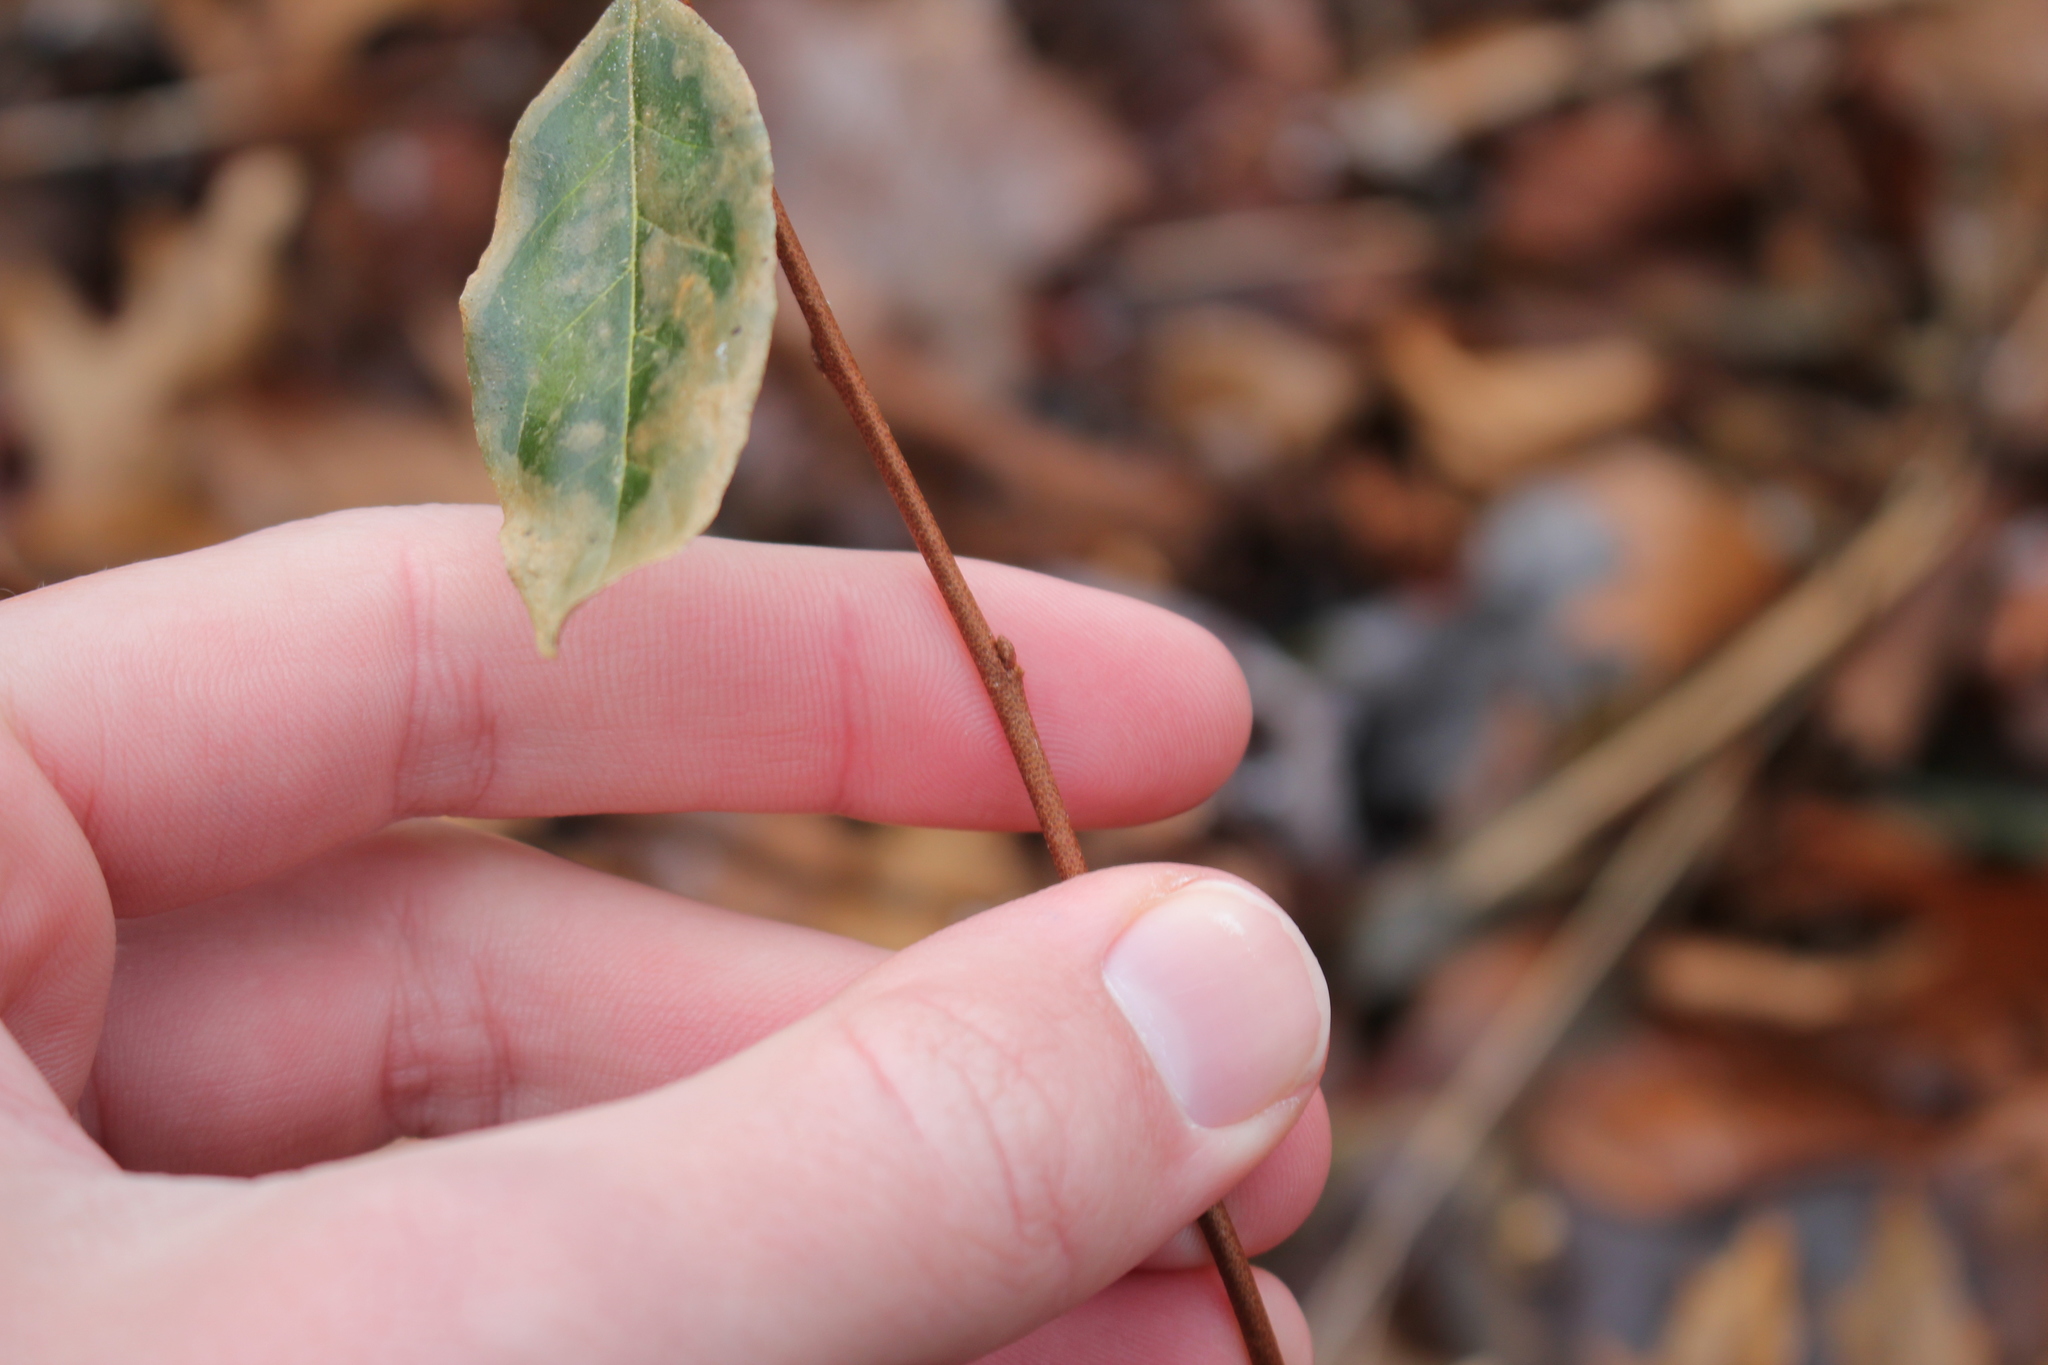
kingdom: Plantae
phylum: Tracheophyta
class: Magnoliopsida
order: Rosales
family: Elaeagnaceae
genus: Elaeagnus
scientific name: Elaeagnus umbellata
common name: Autumn olive
